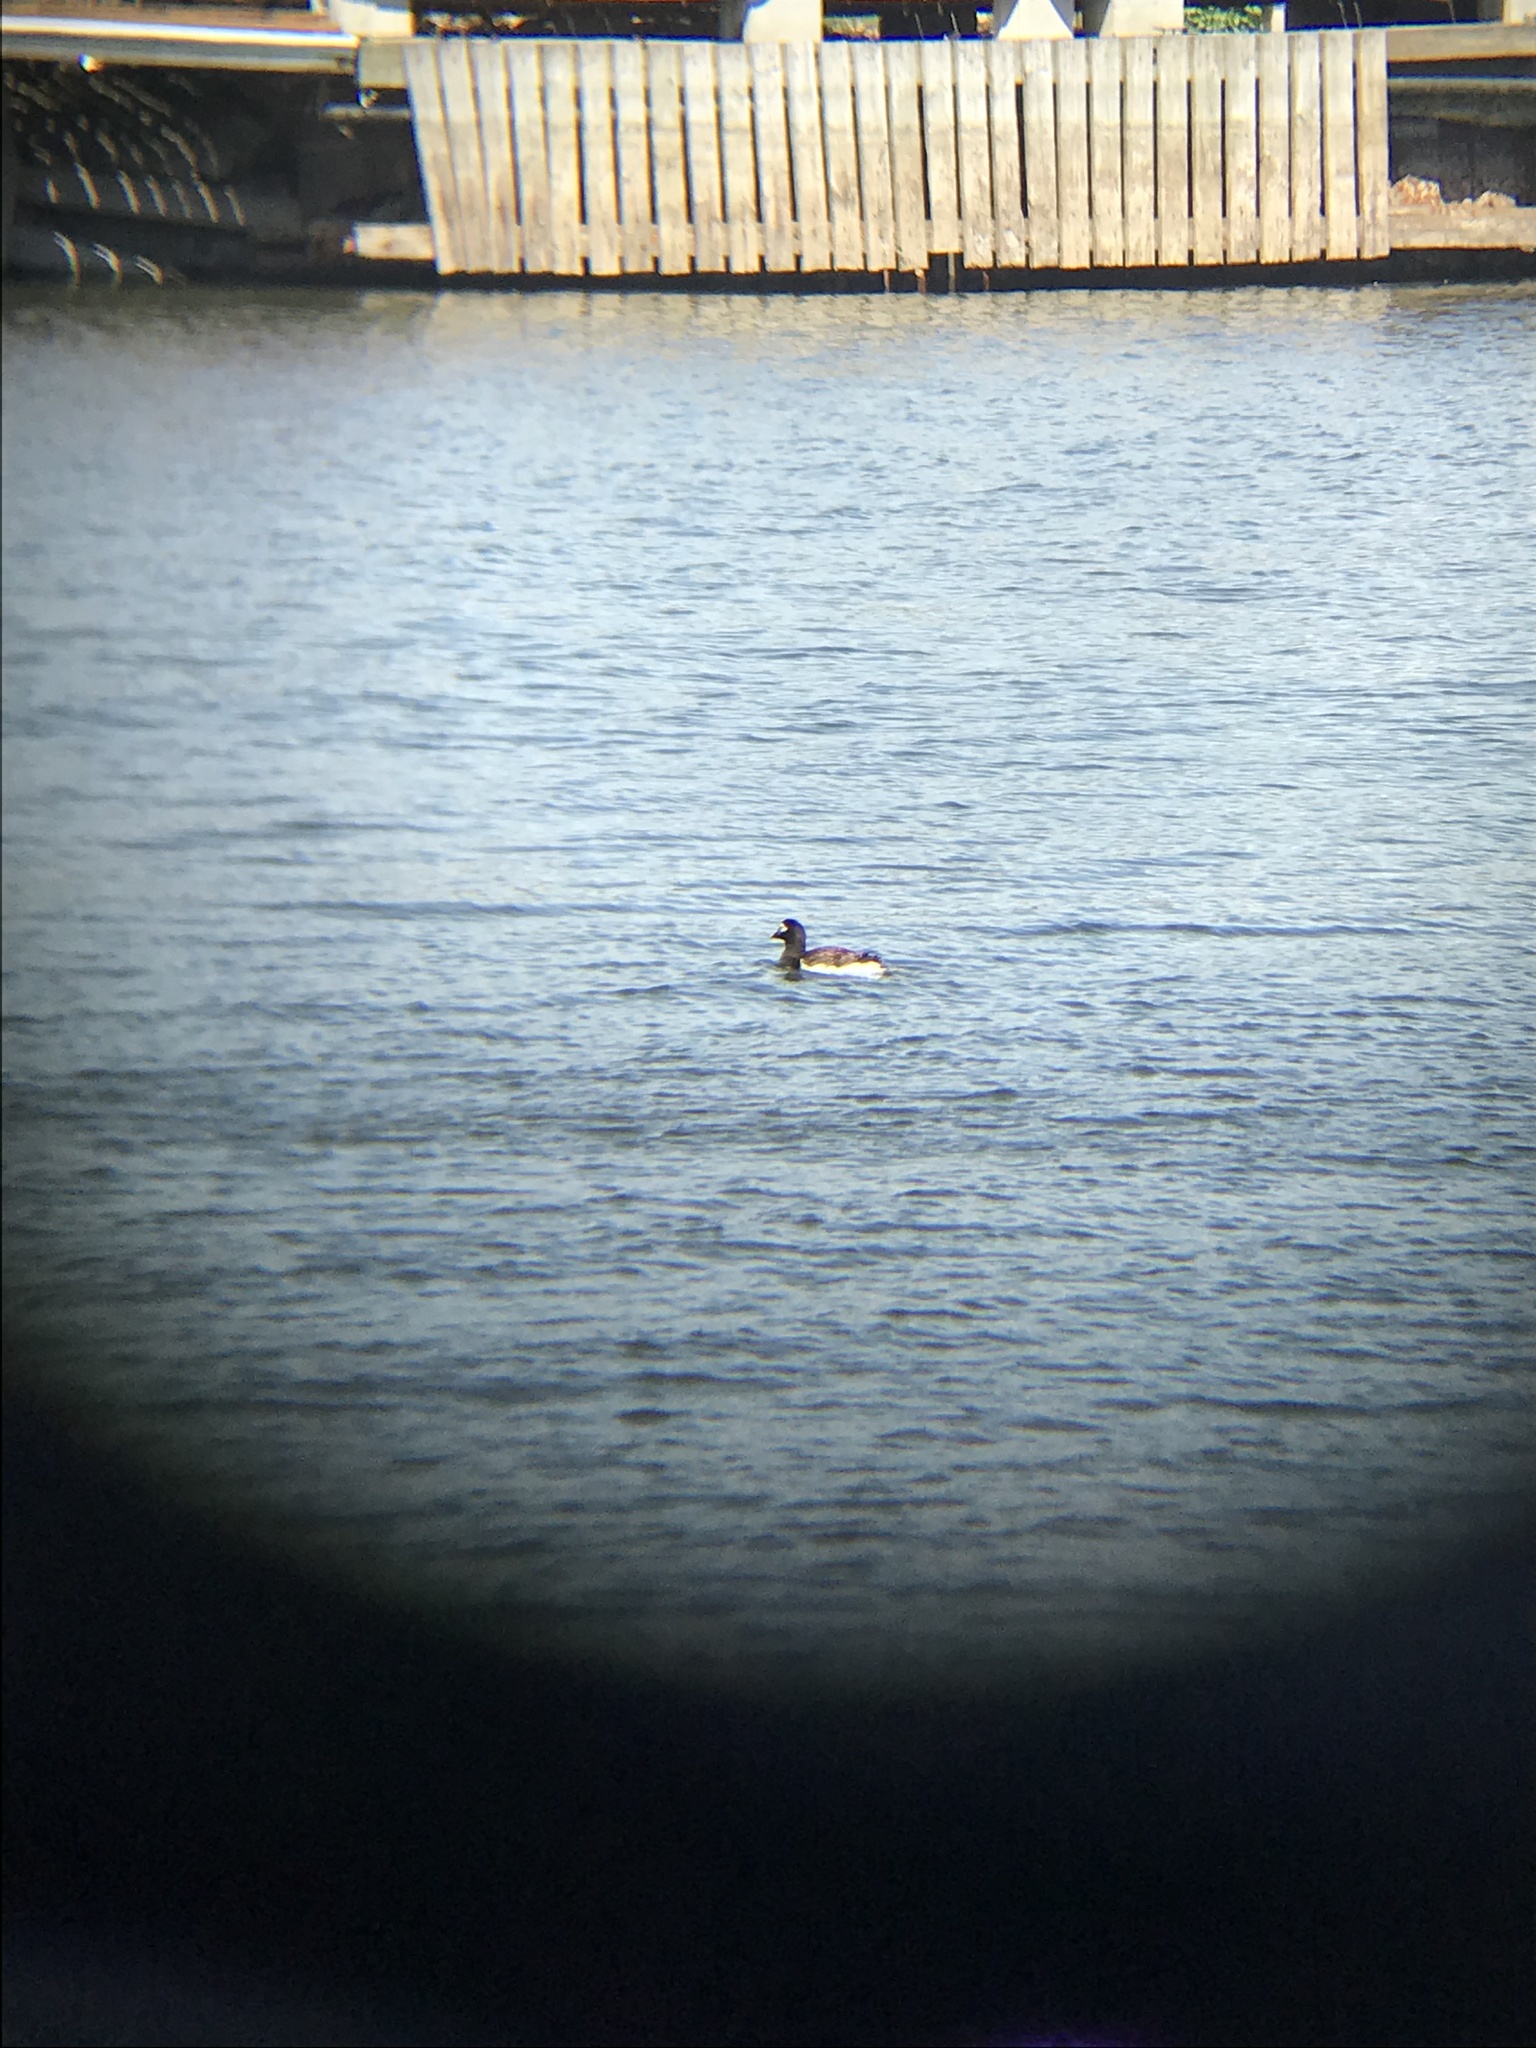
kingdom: Animalia
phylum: Chordata
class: Aves
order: Anseriformes
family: Anatidae
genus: Clangula
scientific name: Clangula hyemalis
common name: Long-tailed duck
